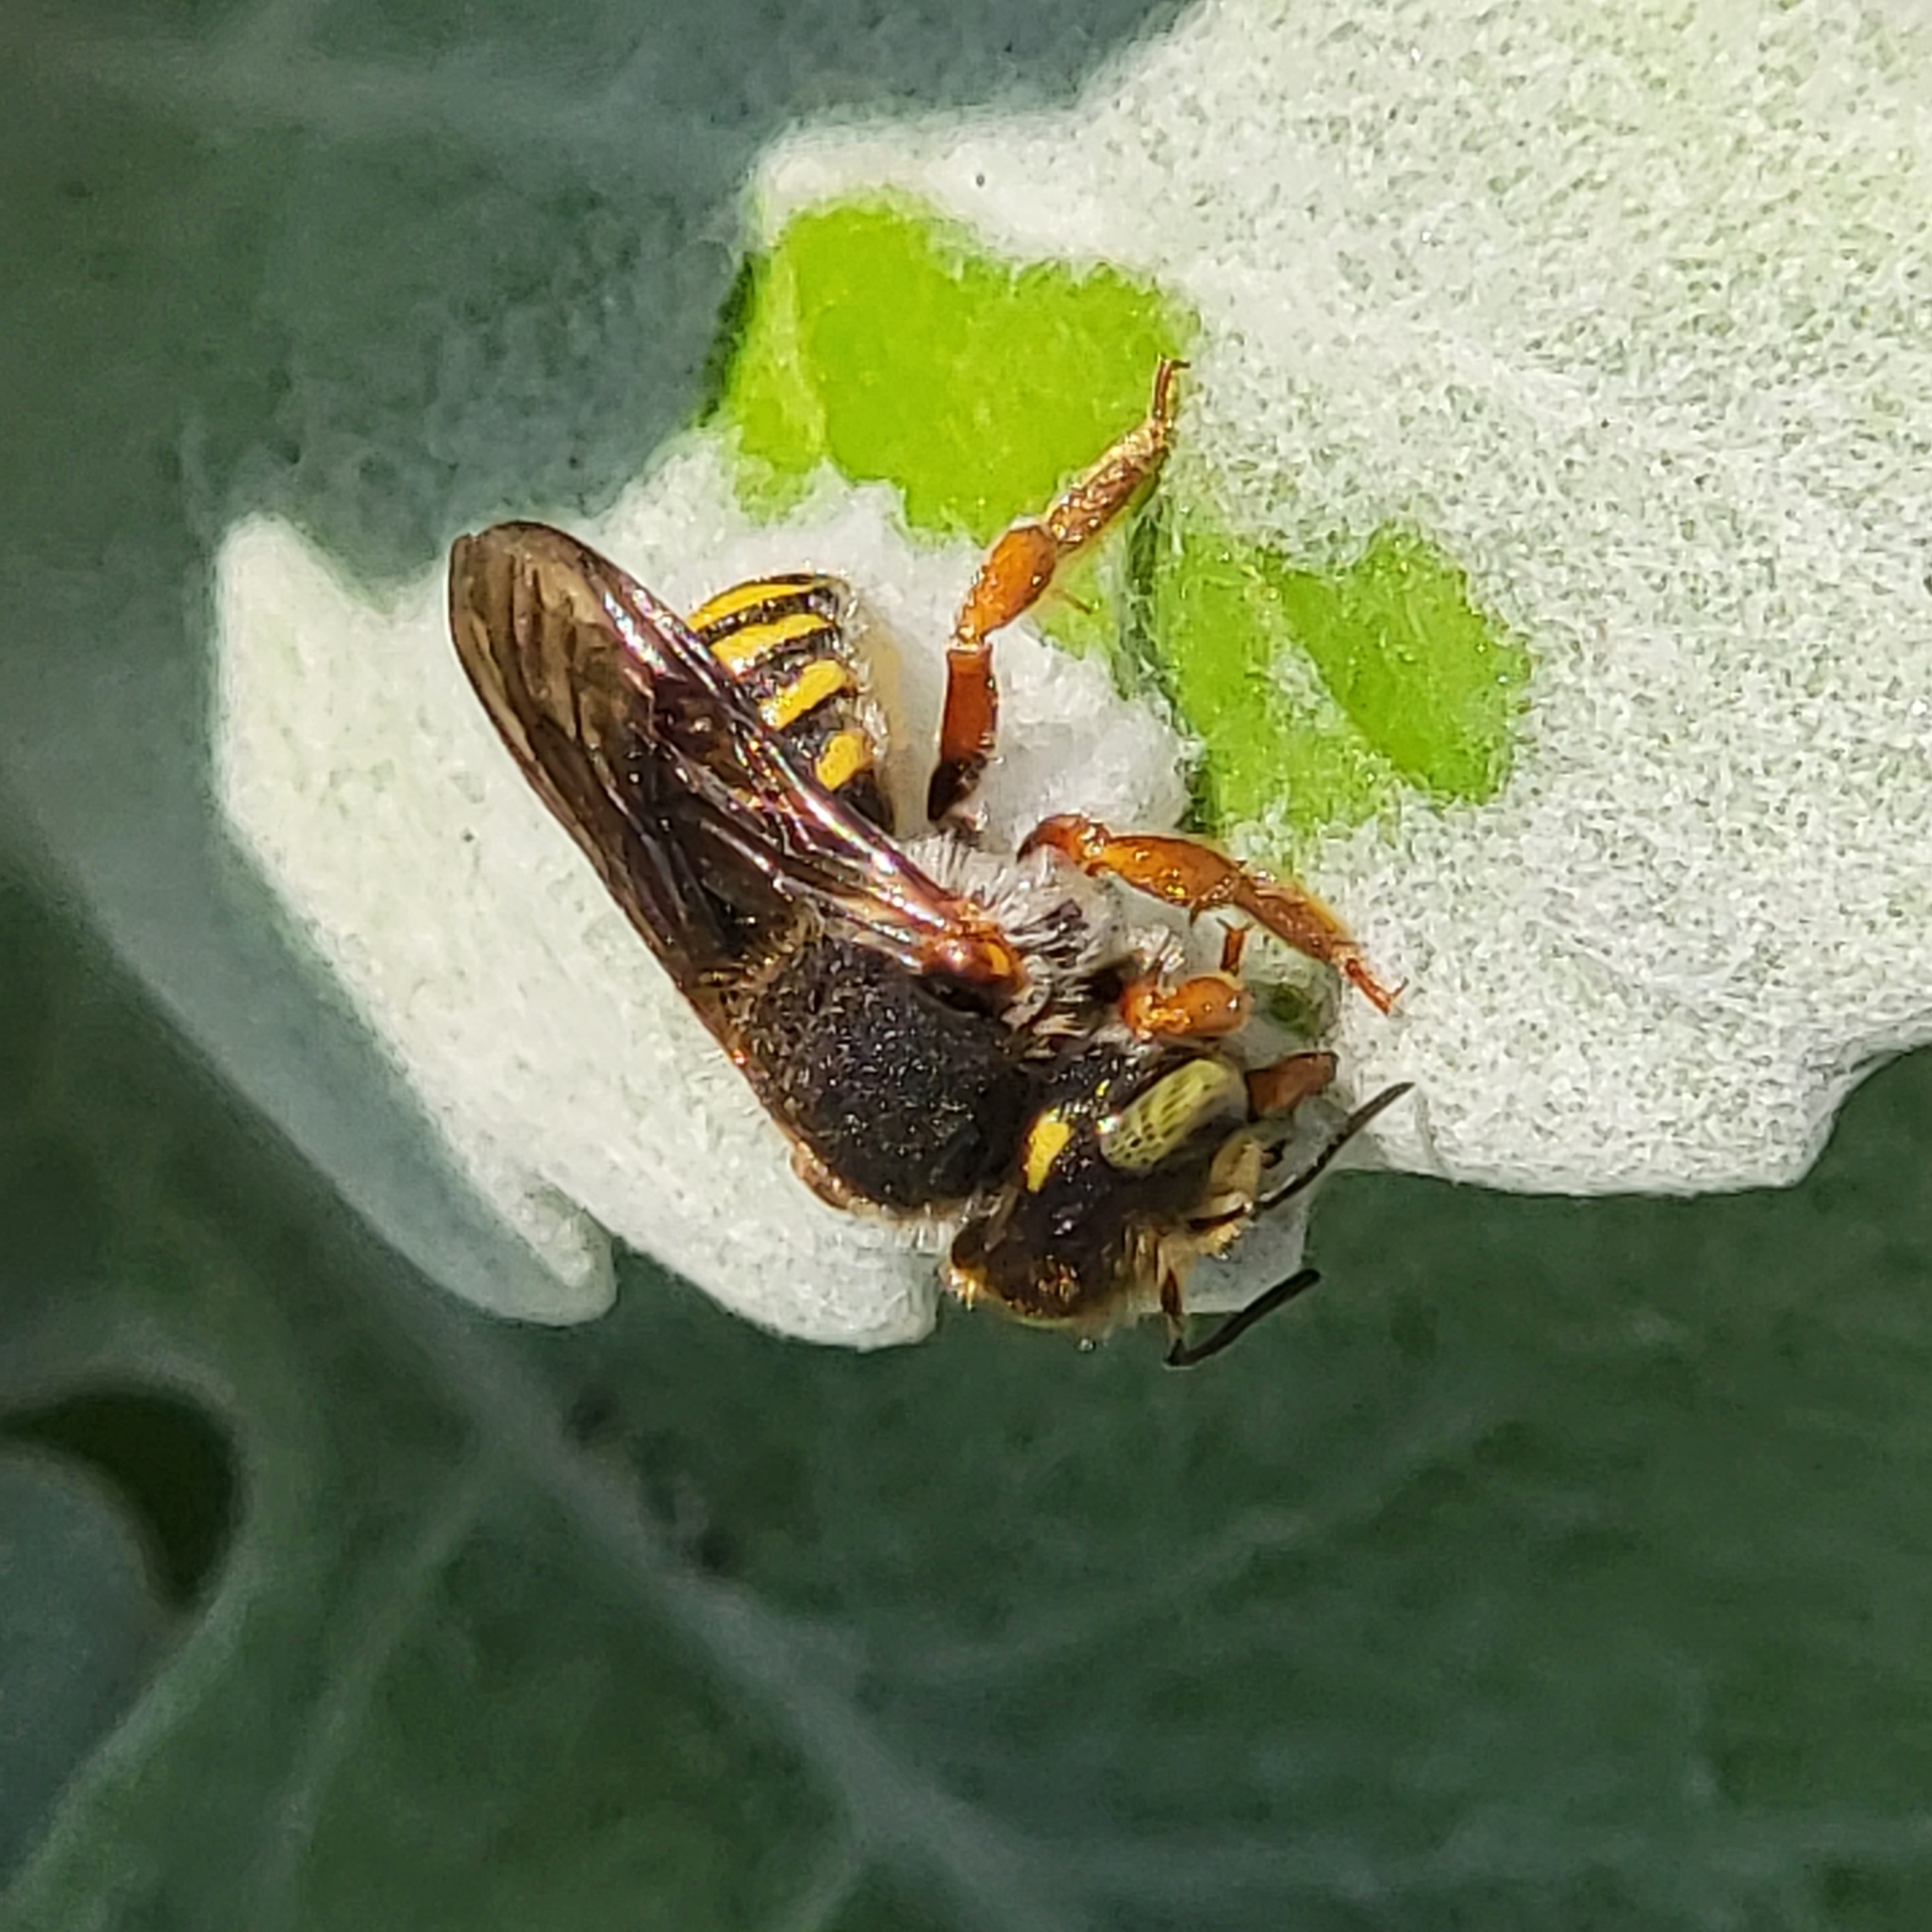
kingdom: Animalia
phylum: Arthropoda
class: Insecta
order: Hymenoptera
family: Megachilidae
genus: Anthidium
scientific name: Anthidium oblongatum
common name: Oblong wool carder bee
